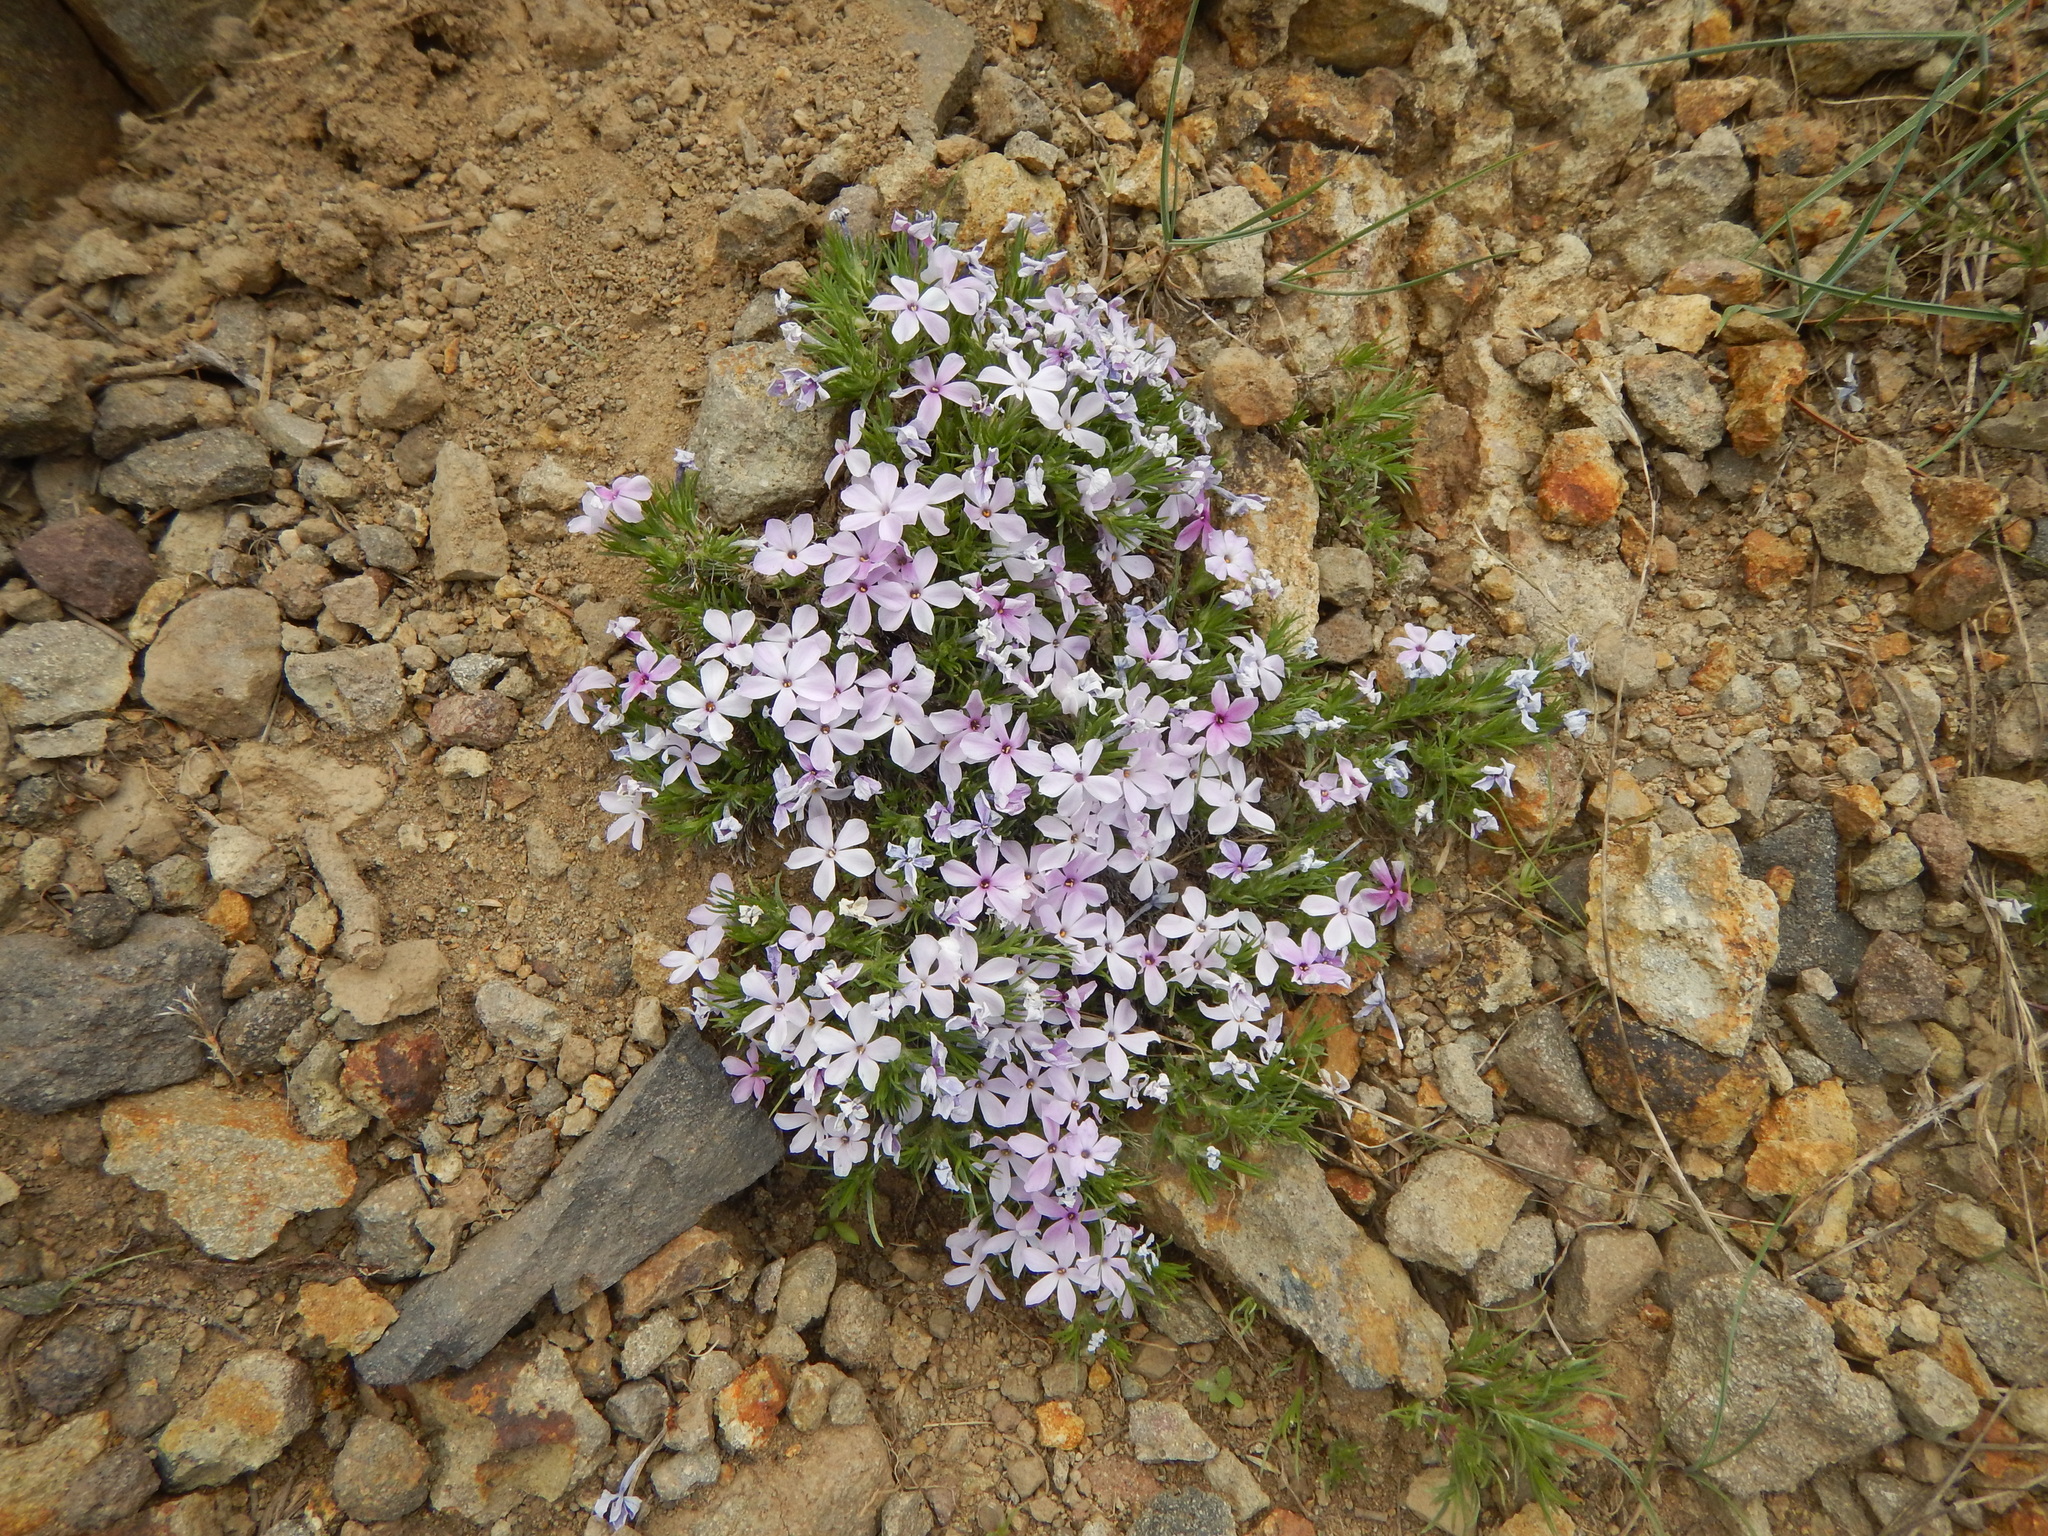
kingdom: Plantae
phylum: Tracheophyta
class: Magnoliopsida
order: Ericales
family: Polemoniaceae
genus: Phlox
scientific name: Phlox diffusa
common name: Mat phlox
